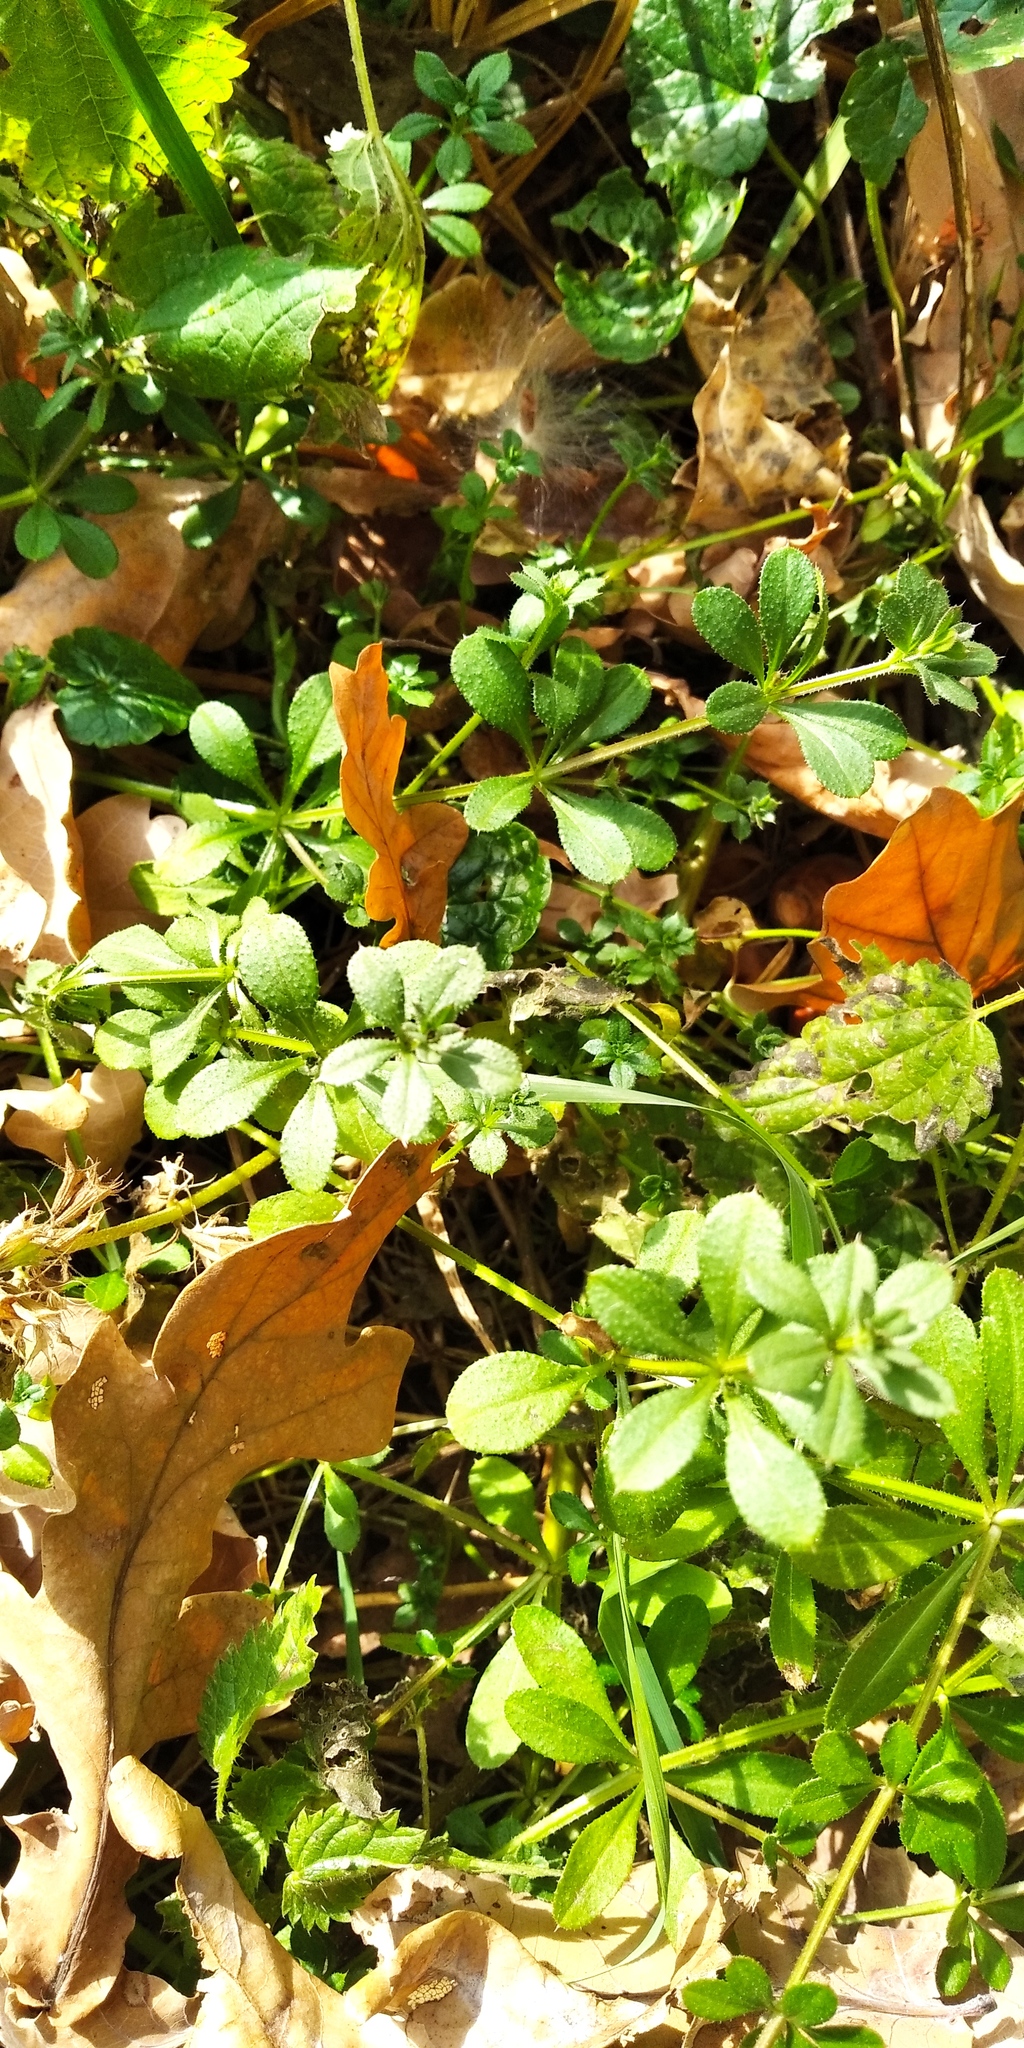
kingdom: Plantae
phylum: Tracheophyta
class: Magnoliopsida
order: Gentianales
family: Rubiaceae
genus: Galium
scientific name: Galium aparine
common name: Cleavers
